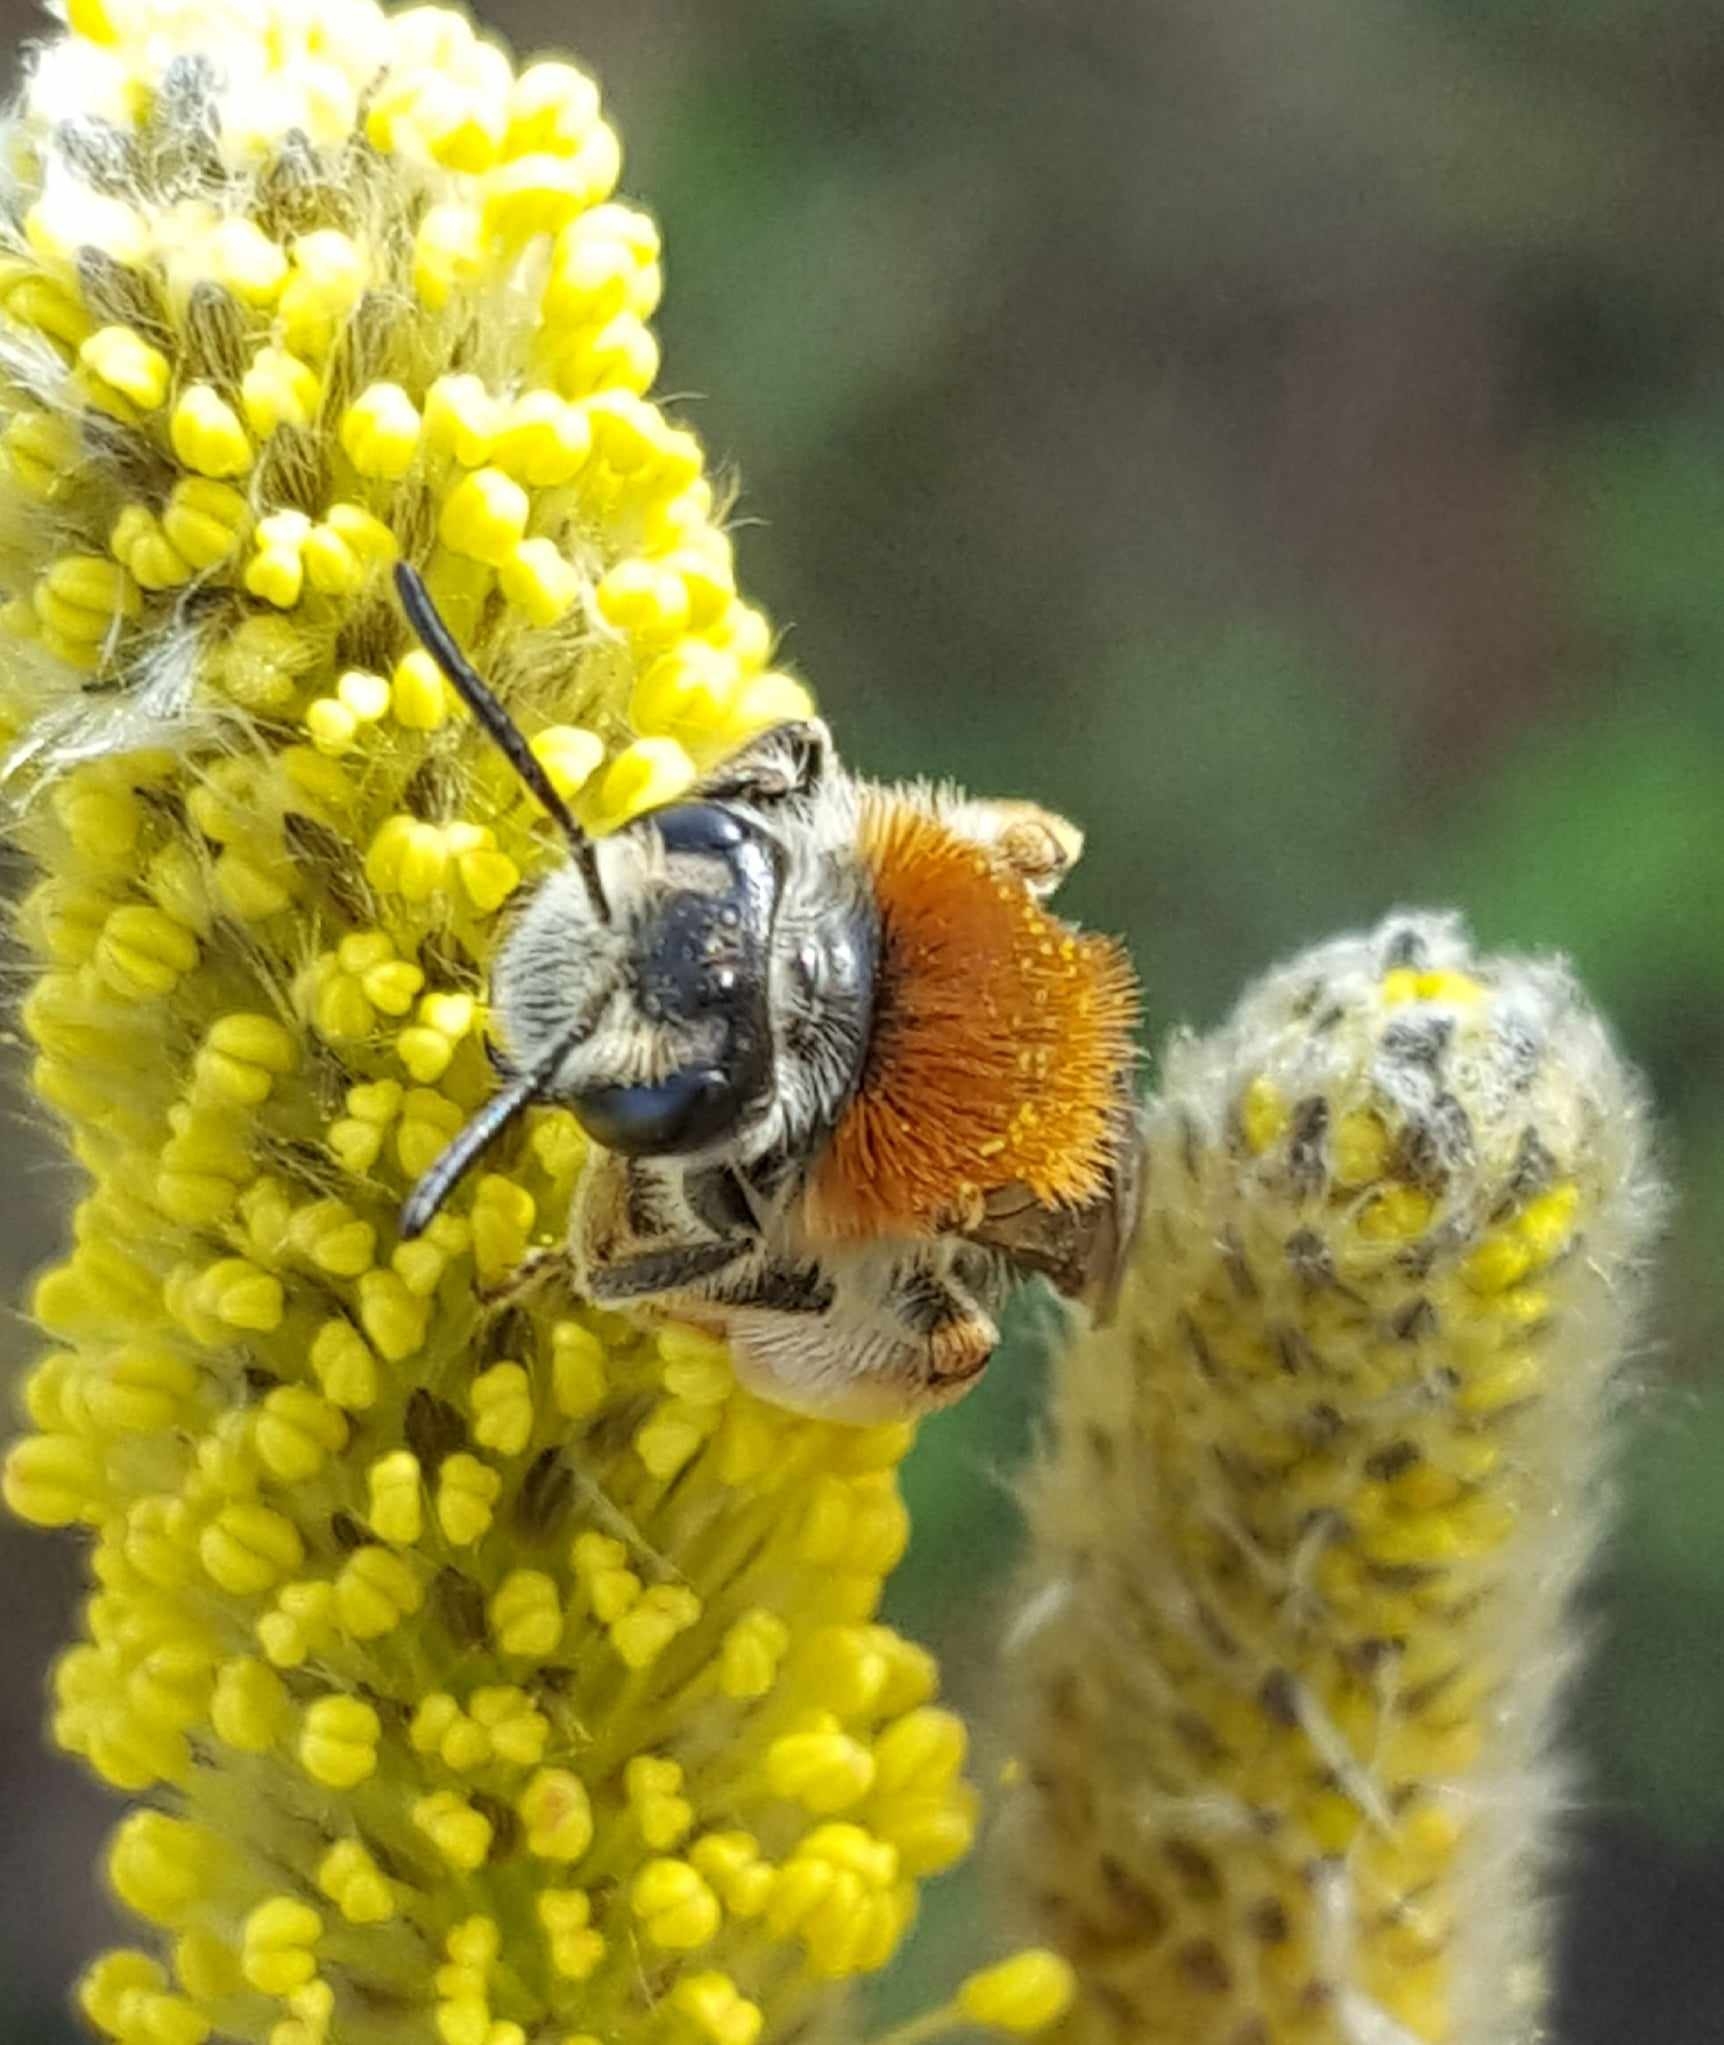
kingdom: Animalia
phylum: Arthropoda
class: Insecta
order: Hymenoptera
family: Andrenidae
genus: Andrena
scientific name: Andrena haemorrhoa
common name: Early mining bee
